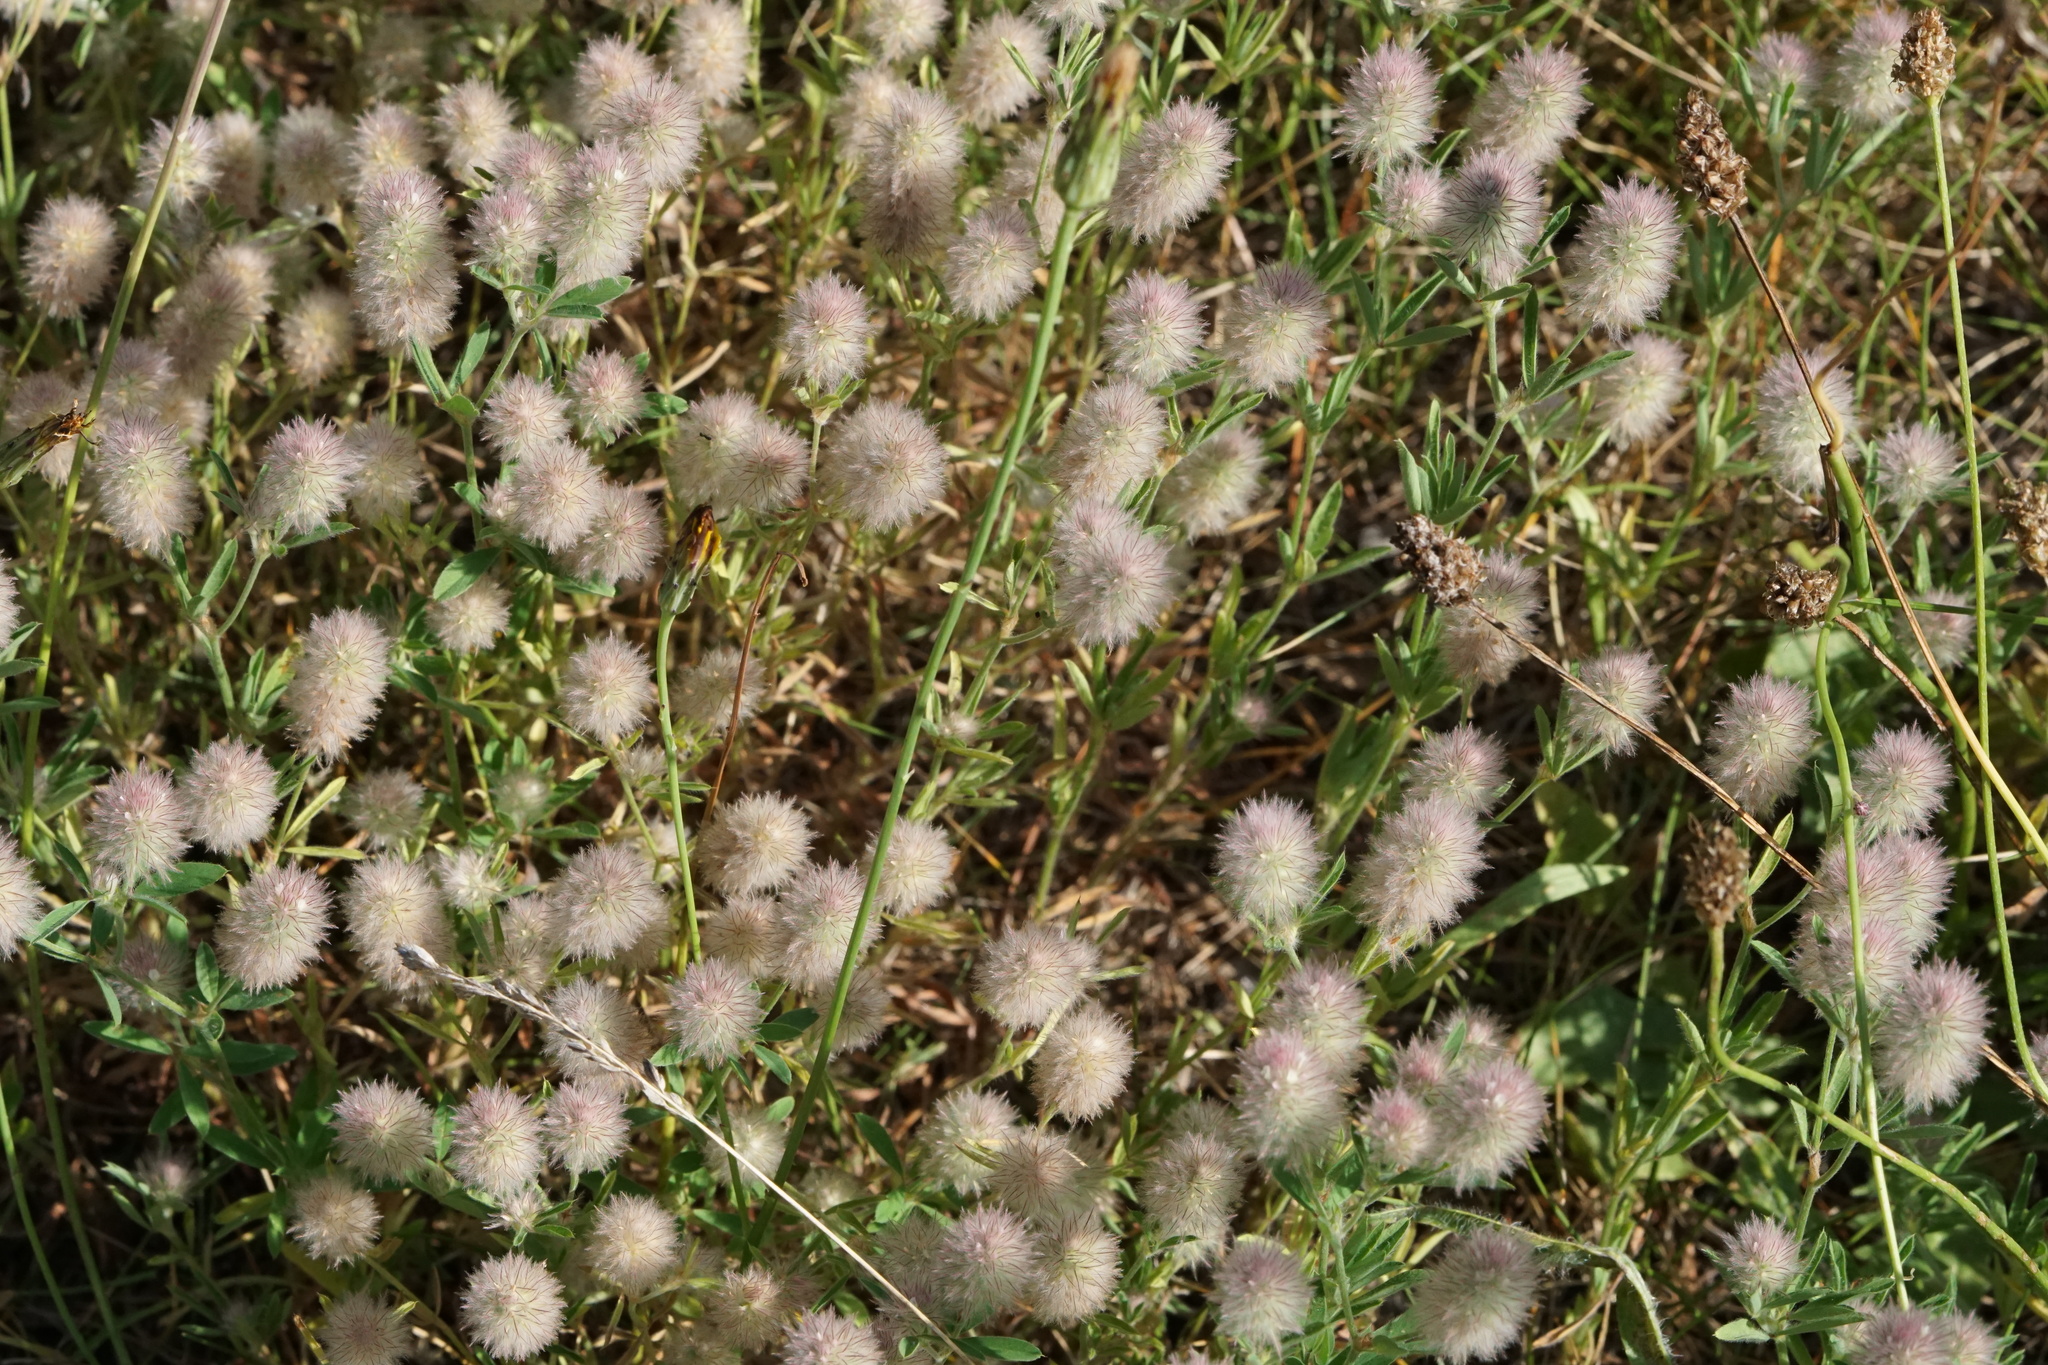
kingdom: Plantae
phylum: Tracheophyta
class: Magnoliopsida
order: Fabales
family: Fabaceae
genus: Trifolium
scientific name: Trifolium arvense
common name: Hare's-foot clover
